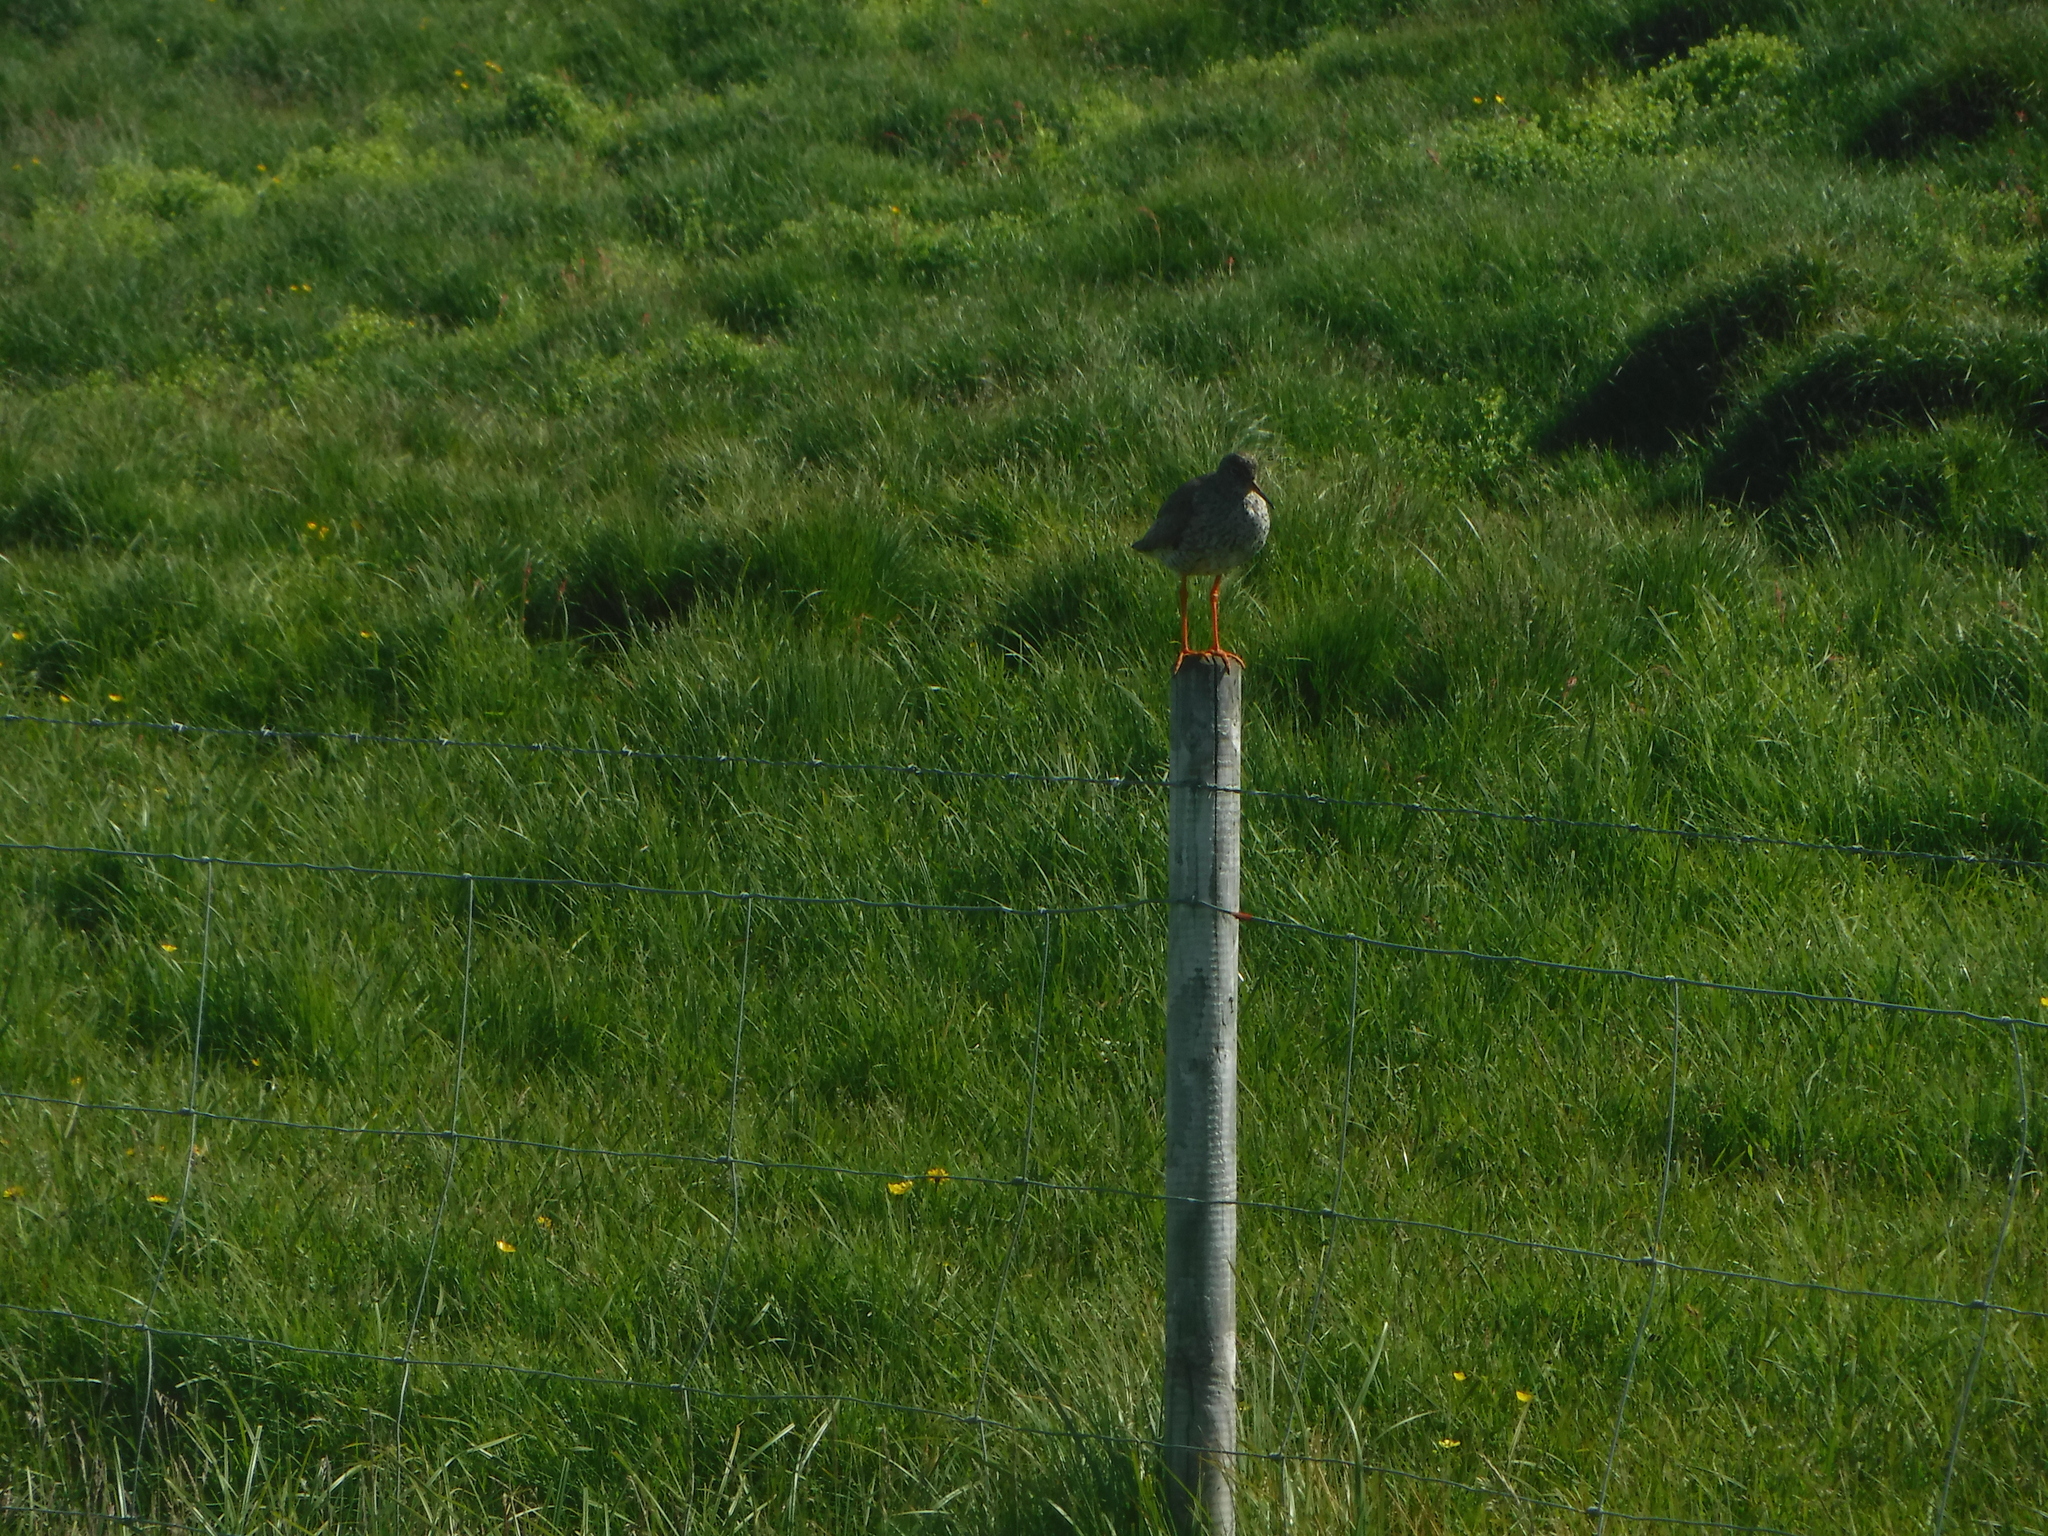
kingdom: Animalia
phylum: Chordata
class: Aves
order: Charadriiformes
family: Scolopacidae
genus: Tringa
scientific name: Tringa totanus
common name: Common redshank
